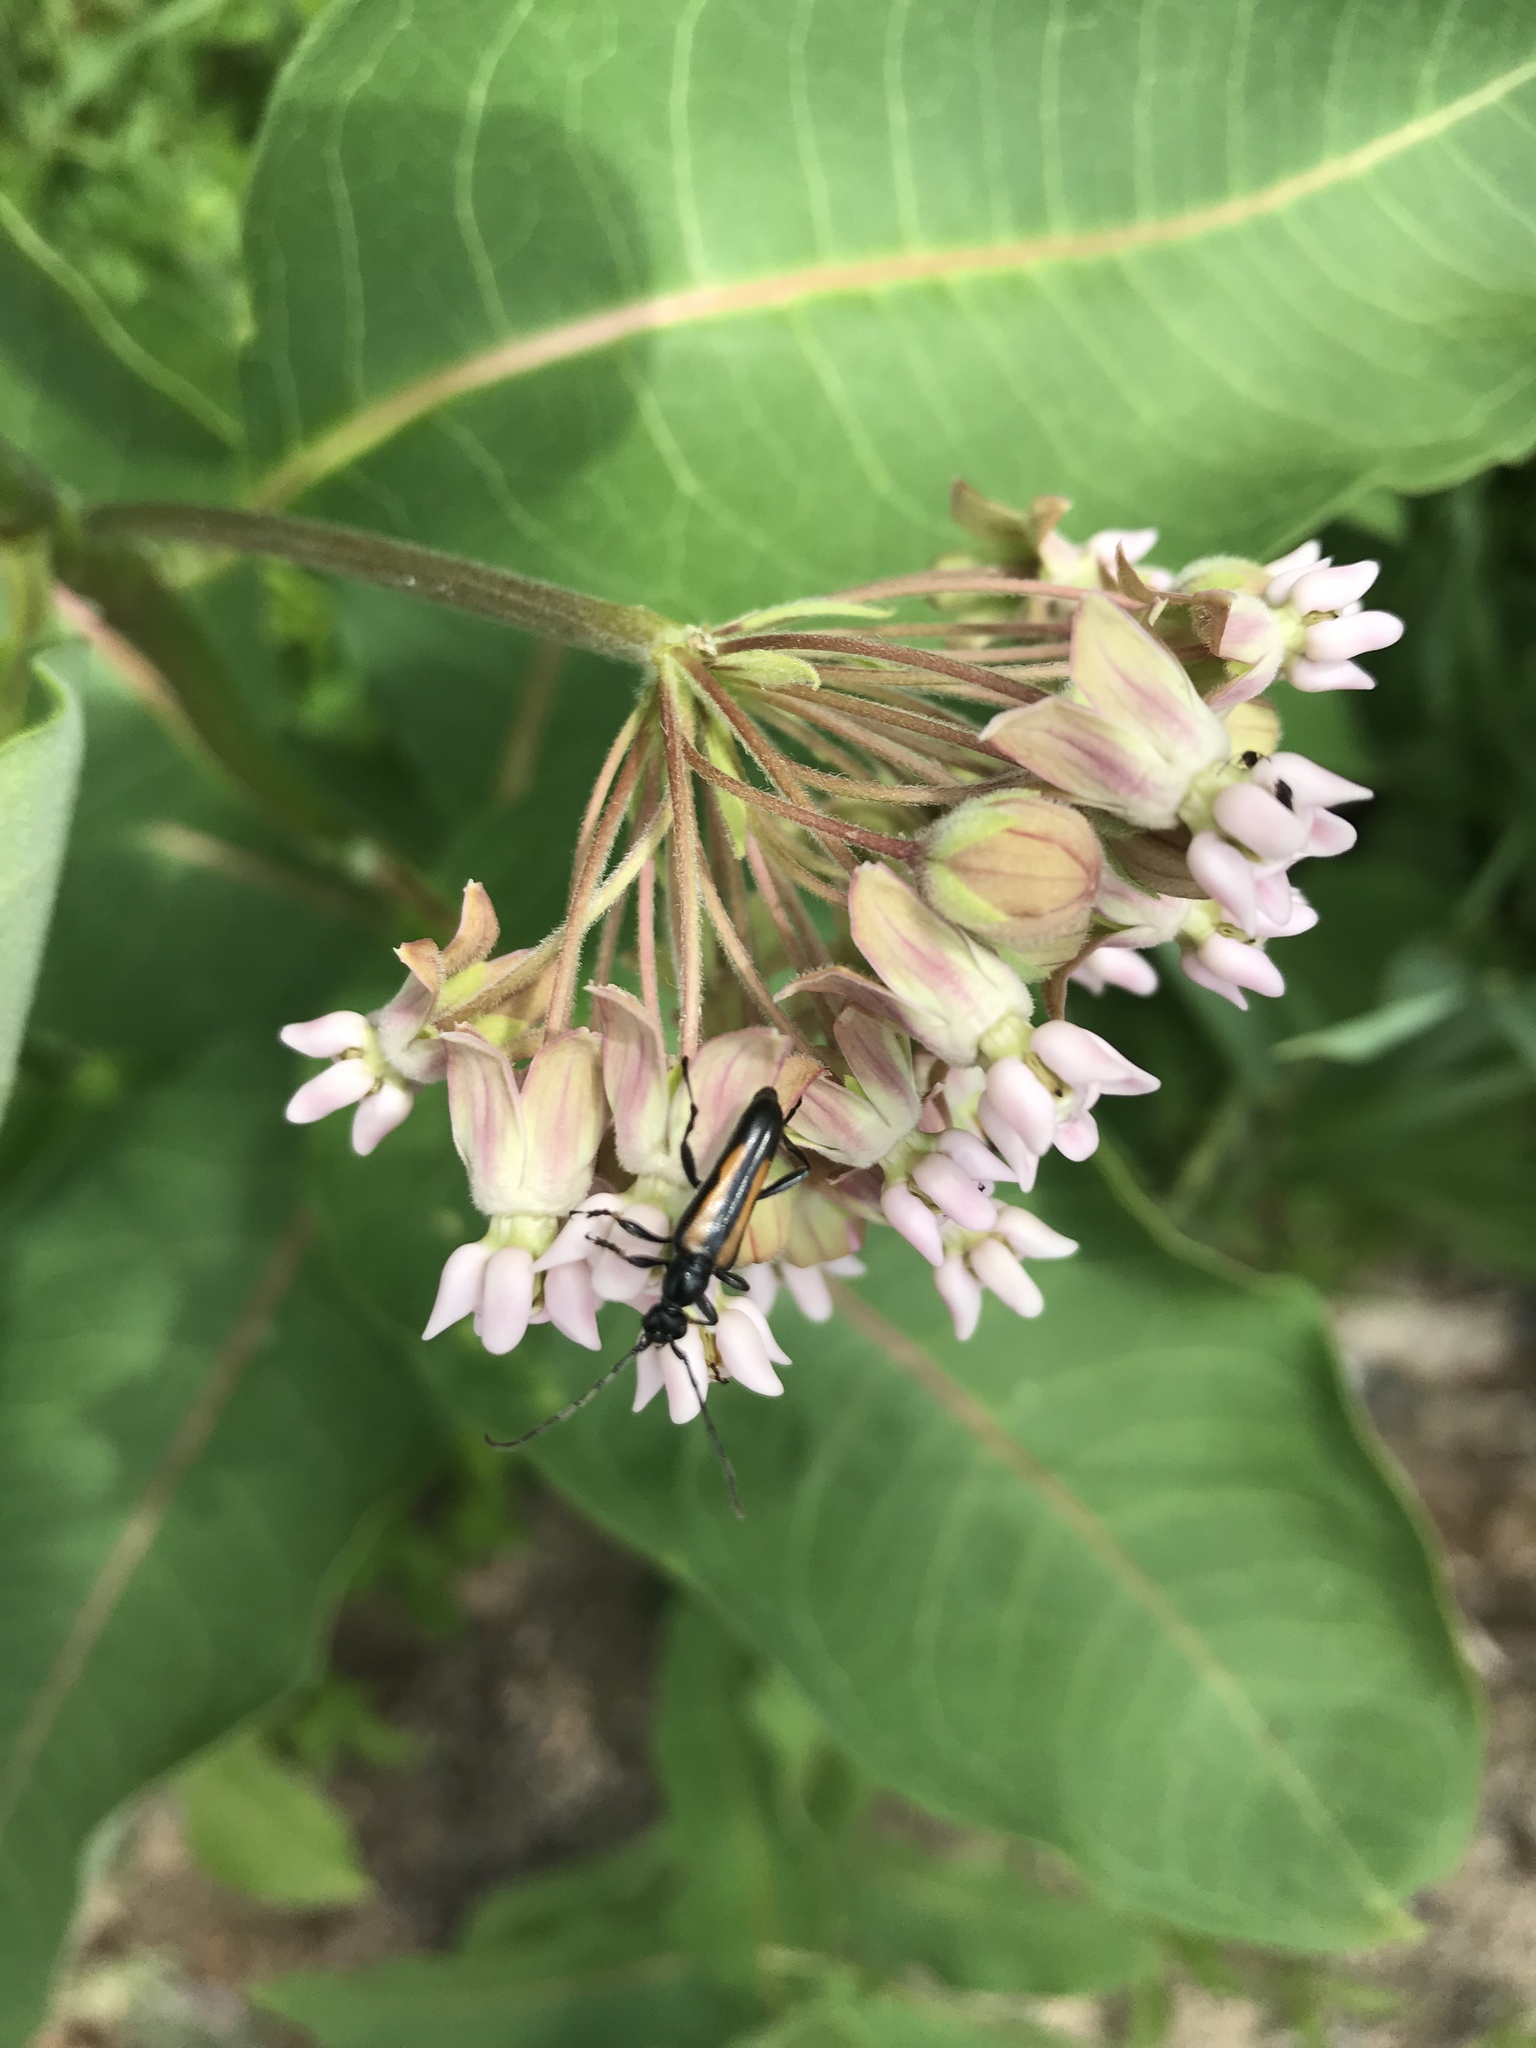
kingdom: Animalia
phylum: Arthropoda
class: Insecta
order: Coleoptera
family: Cerambycidae
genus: Strangalepta
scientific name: Strangalepta abbreviata
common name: Strangalepta flower longhorn beetle
